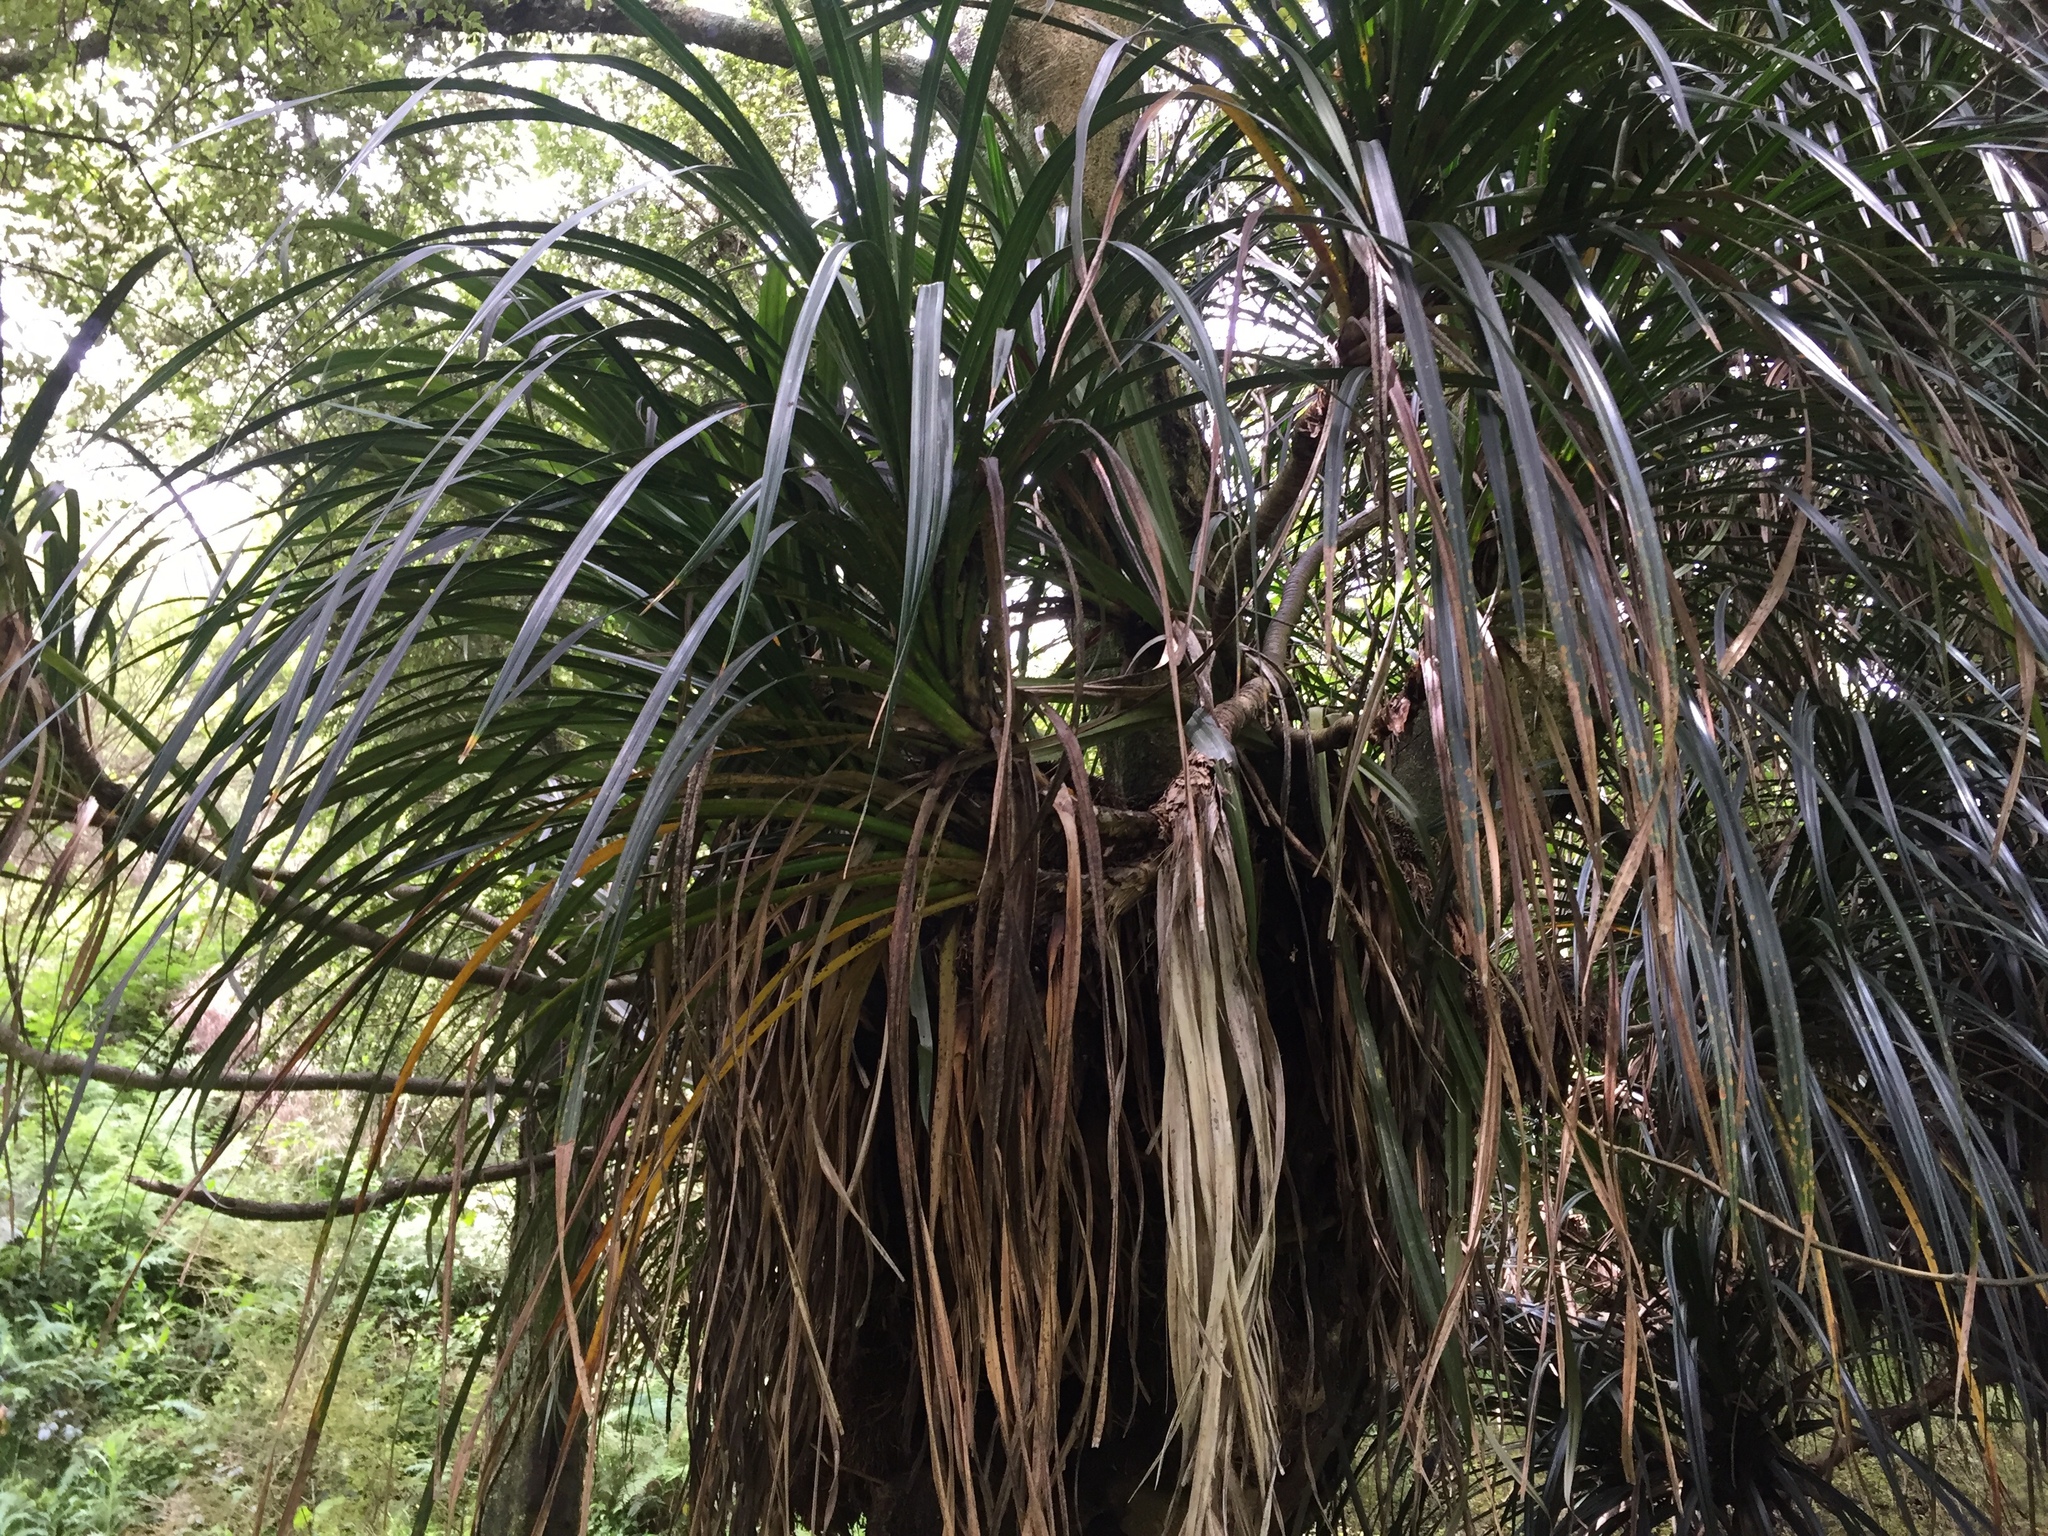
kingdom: Plantae
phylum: Tracheophyta
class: Liliopsida
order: Pandanales
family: Pandanaceae
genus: Freycinetia
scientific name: Freycinetia banksii
